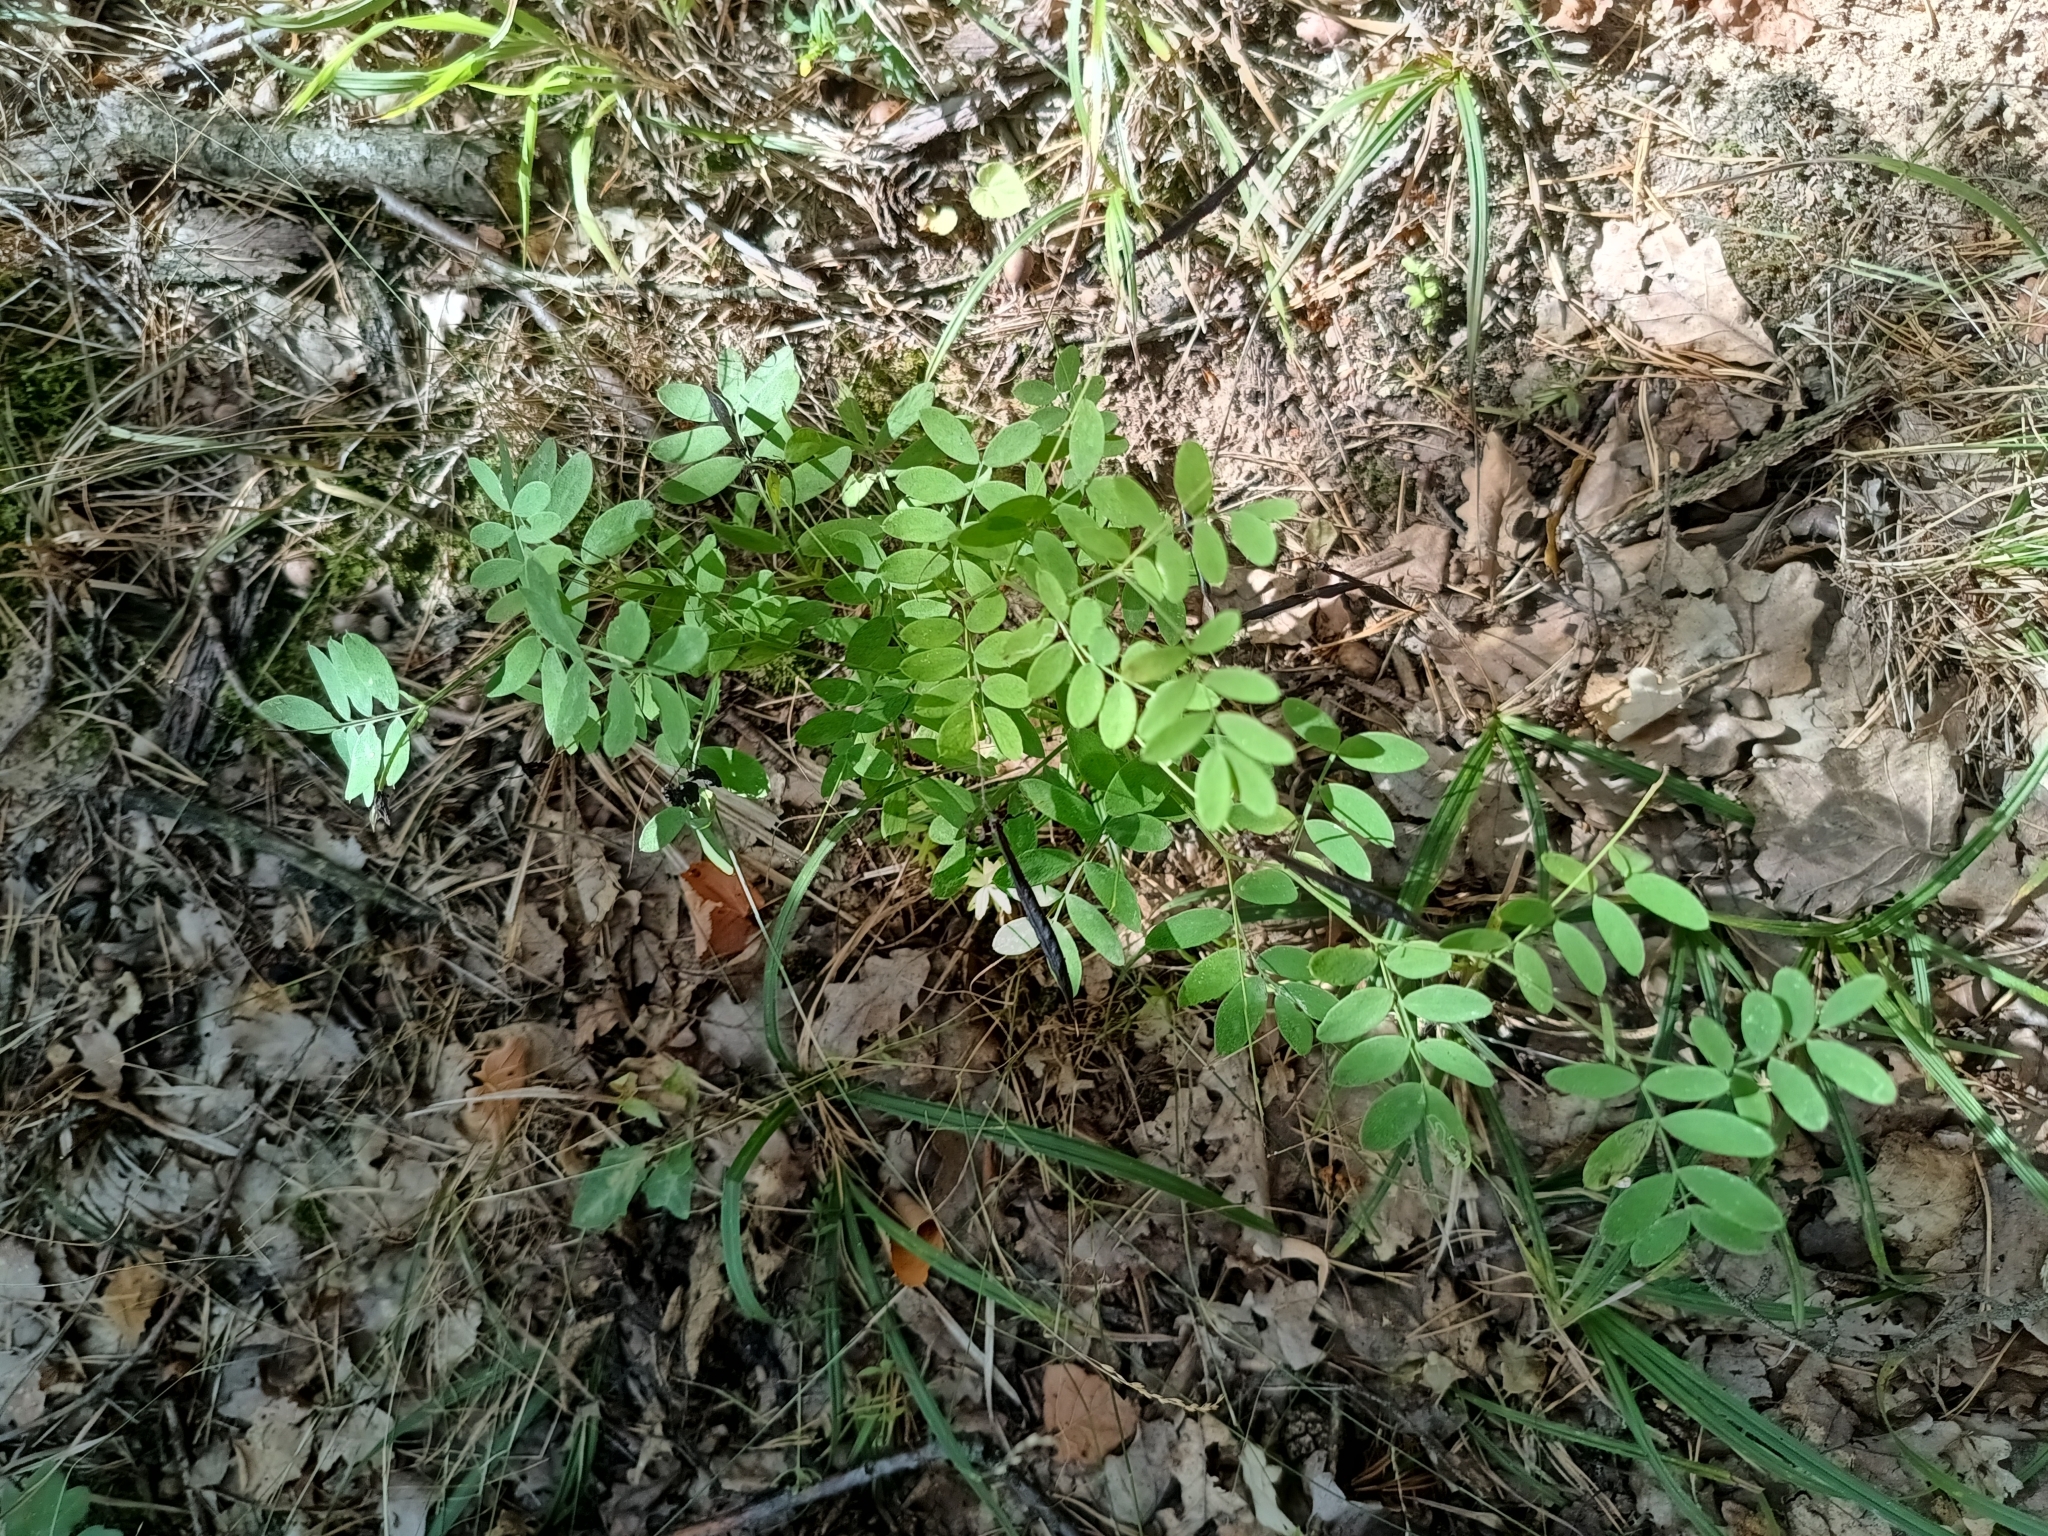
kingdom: Plantae
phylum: Tracheophyta
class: Magnoliopsida
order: Fabales
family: Fabaceae
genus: Lathyrus
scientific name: Lathyrus niger
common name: Black pea
